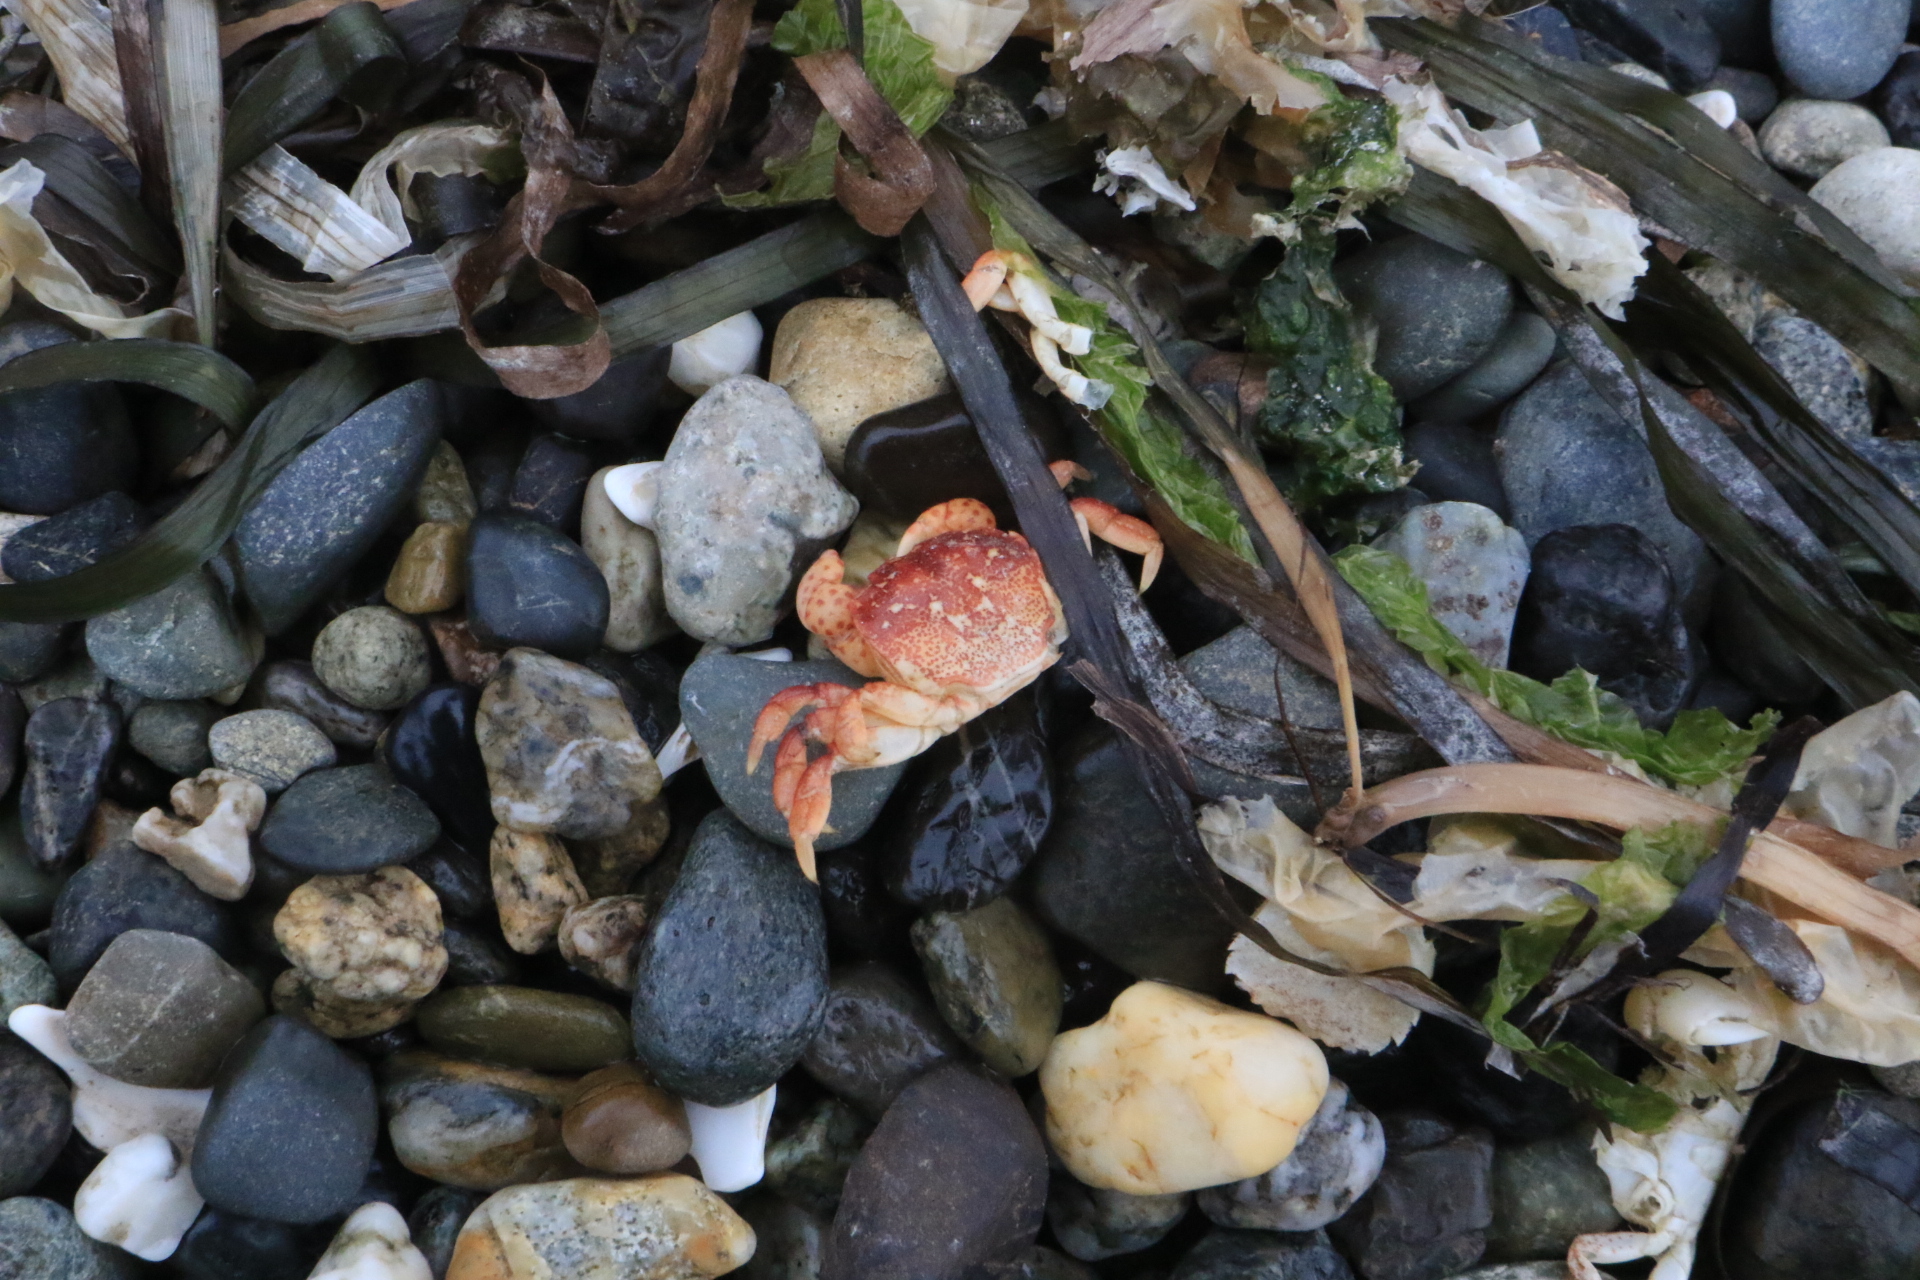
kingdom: Animalia
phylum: Arthropoda
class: Malacostraca
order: Decapoda
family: Varunidae
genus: Hemigrapsus
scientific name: Hemigrapsus nudus
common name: Purple shore crab
